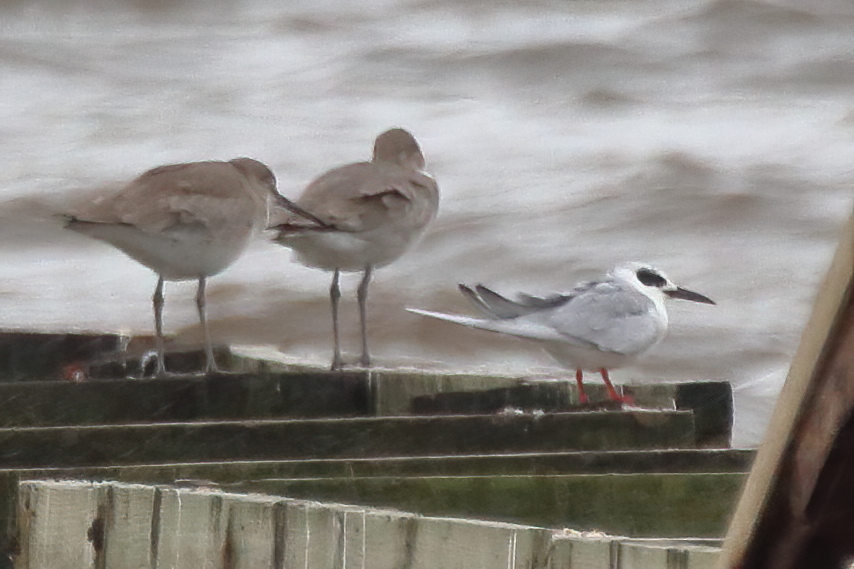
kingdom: Animalia
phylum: Chordata
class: Aves
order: Charadriiformes
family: Laridae
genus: Sterna
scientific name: Sterna forsteri
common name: Forster's tern
